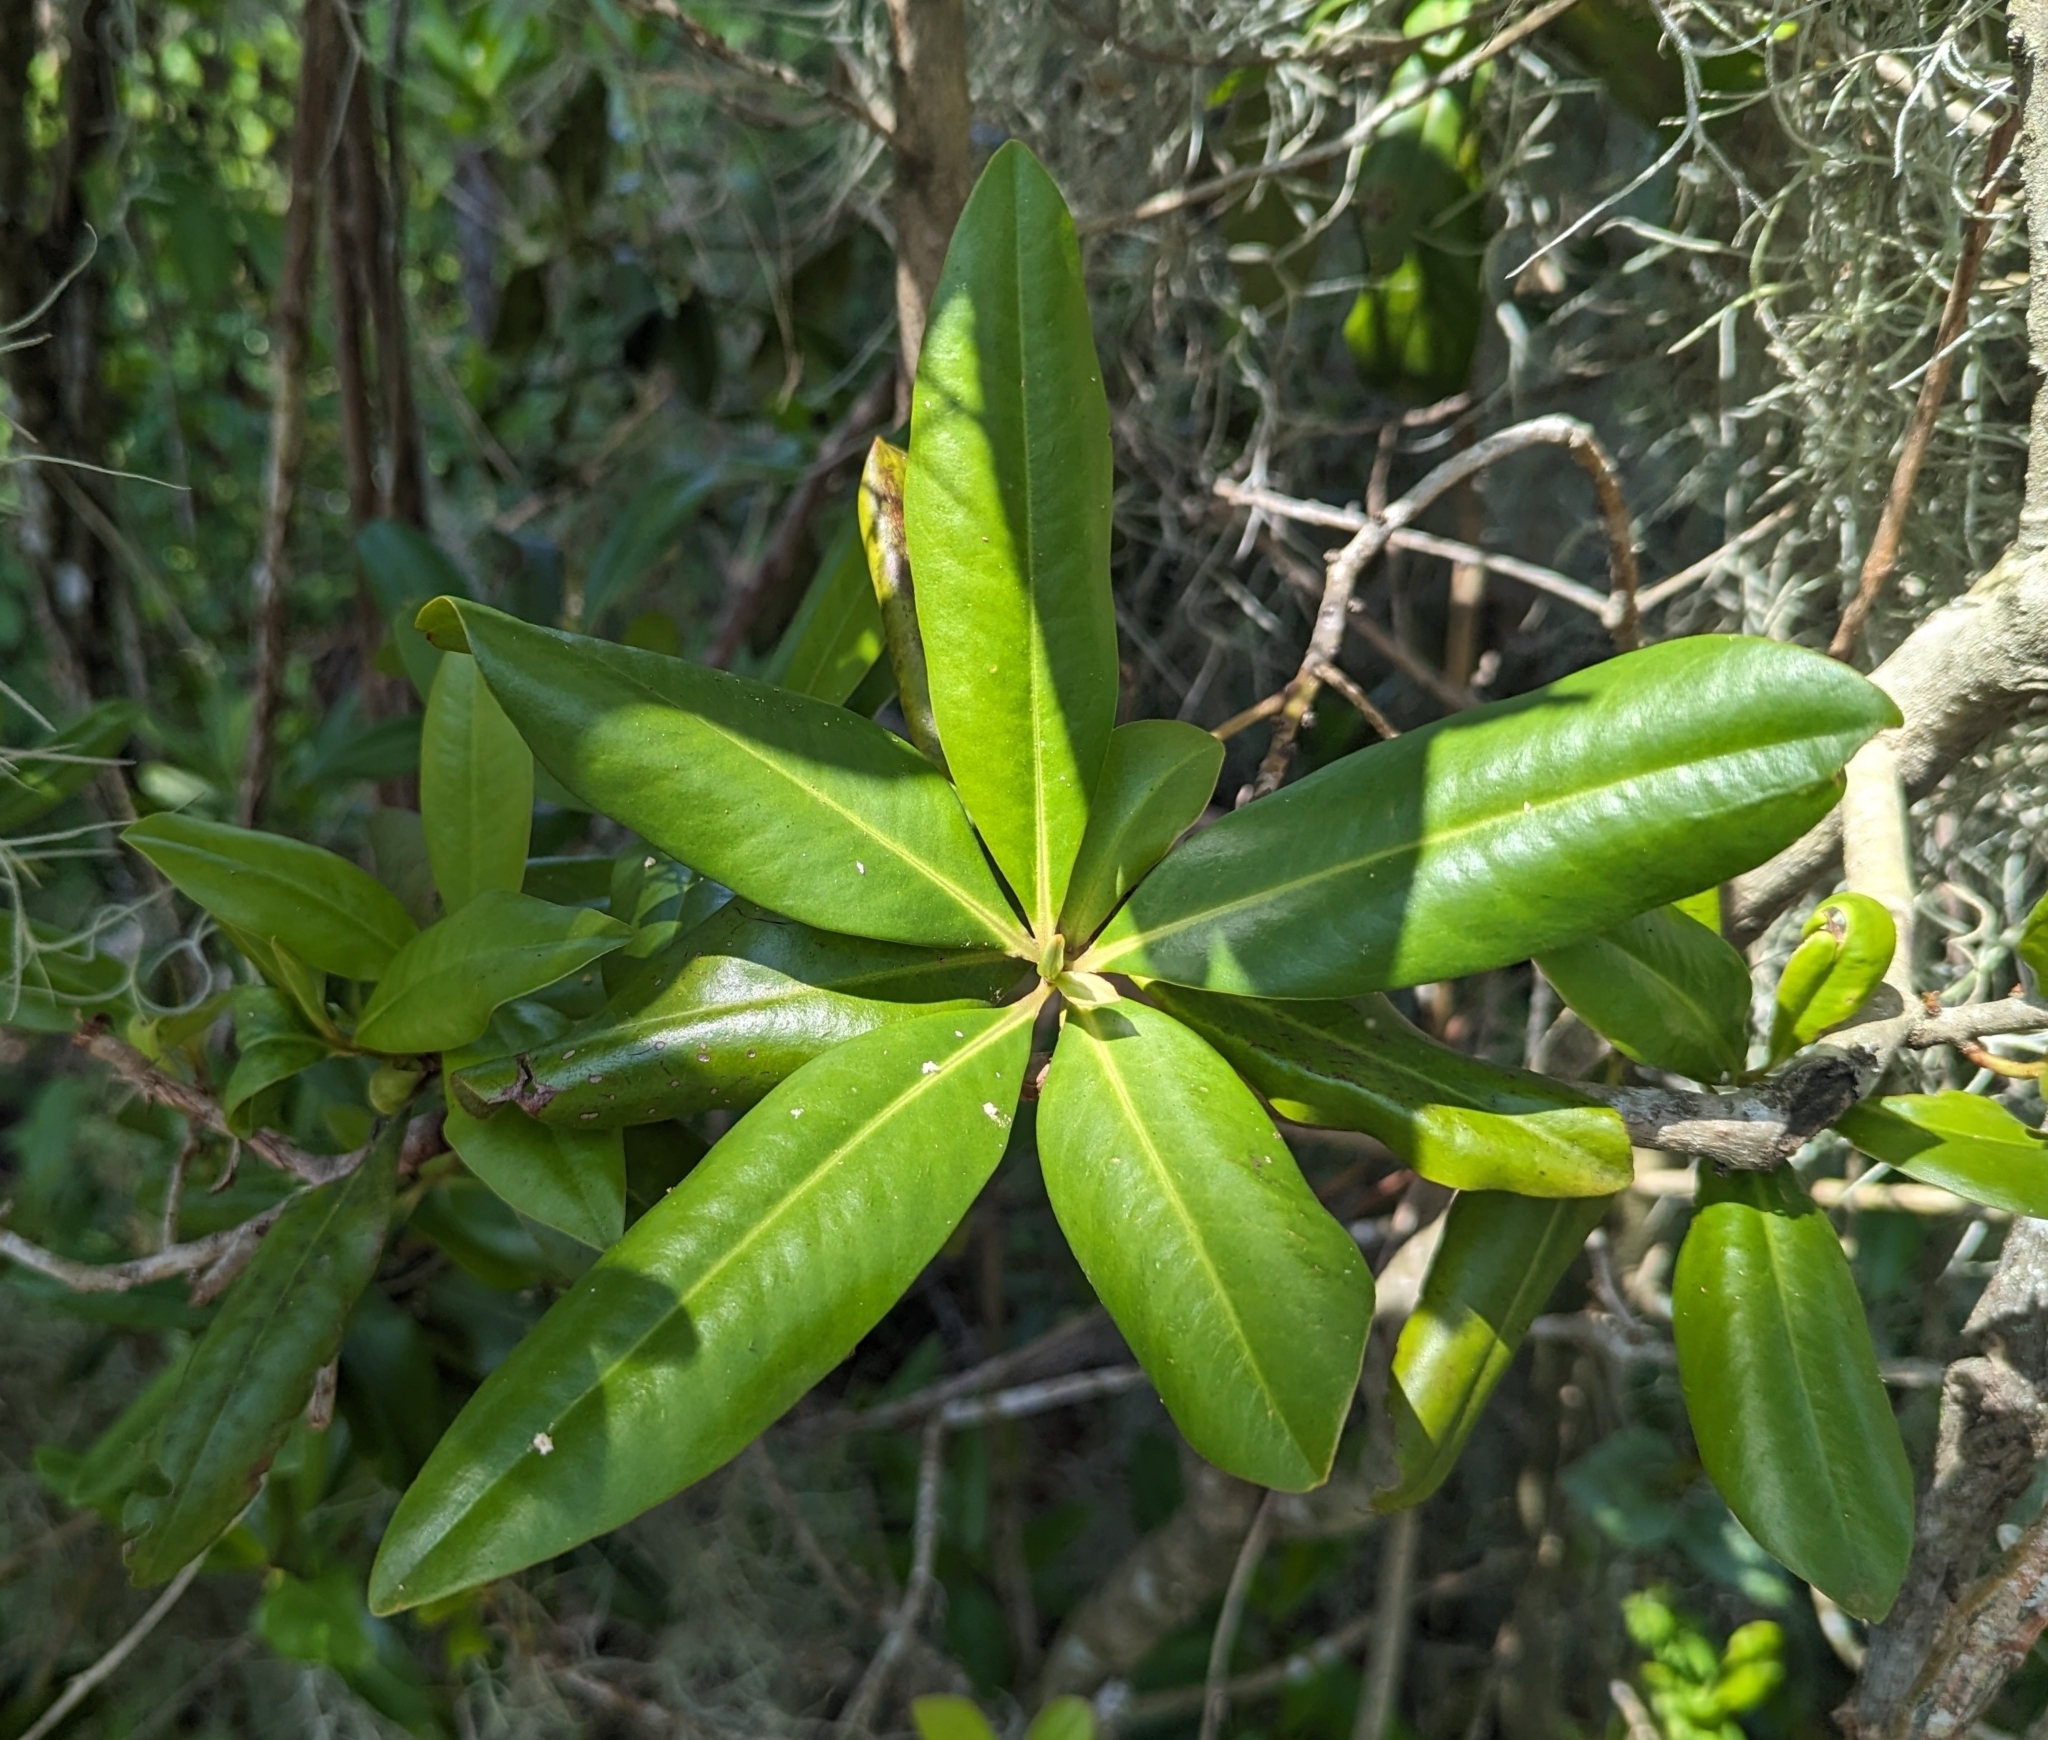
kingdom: Plantae
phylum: Tracheophyta
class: Magnoliopsida
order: Ericales
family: Primulaceae
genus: Myrsine
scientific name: Myrsine floridana
